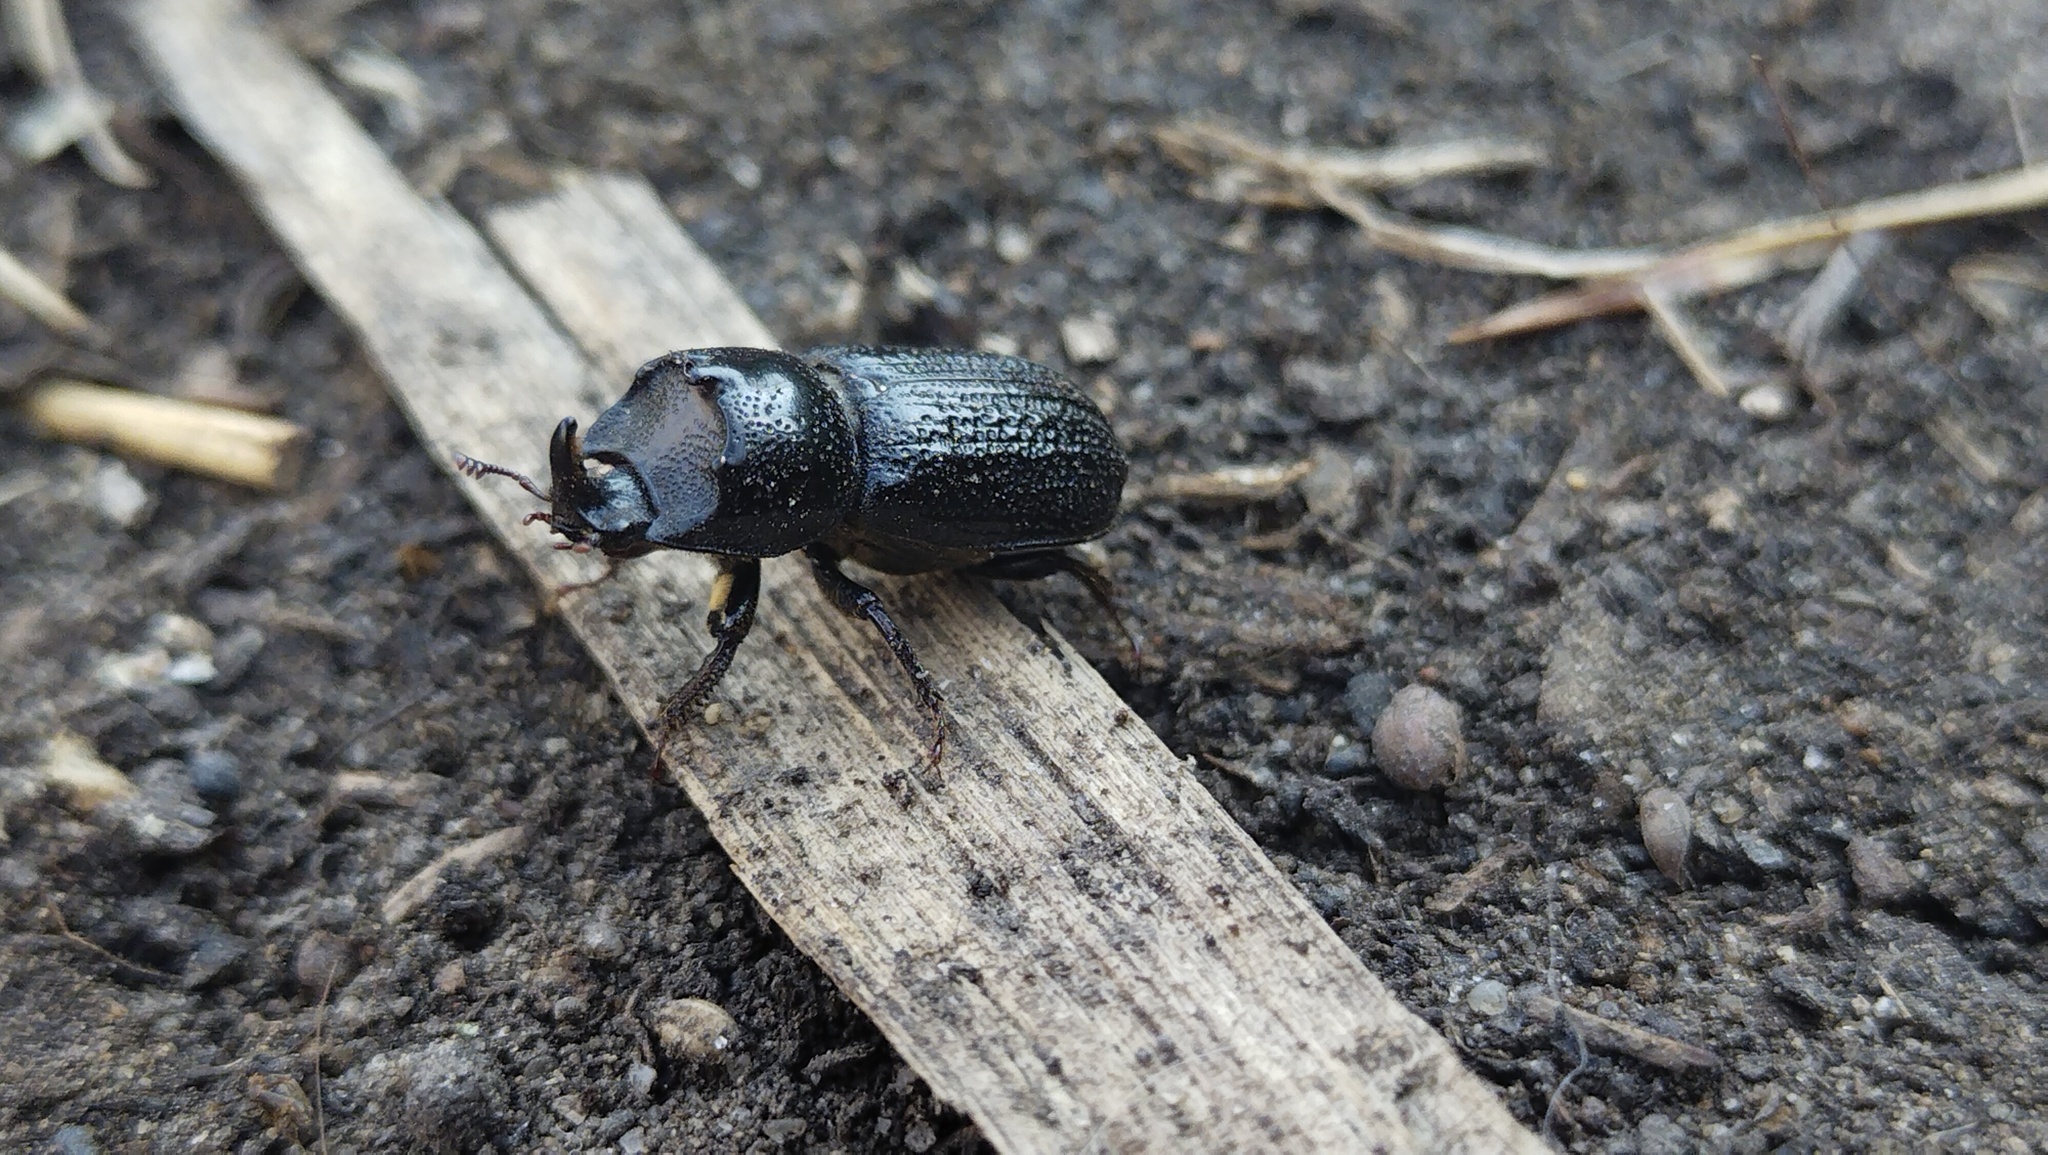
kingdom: Animalia
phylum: Arthropoda
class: Insecta
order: Coleoptera
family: Lucanidae
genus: Sinodendron
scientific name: Sinodendron cylindricum
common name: Rhinoceros beetle
